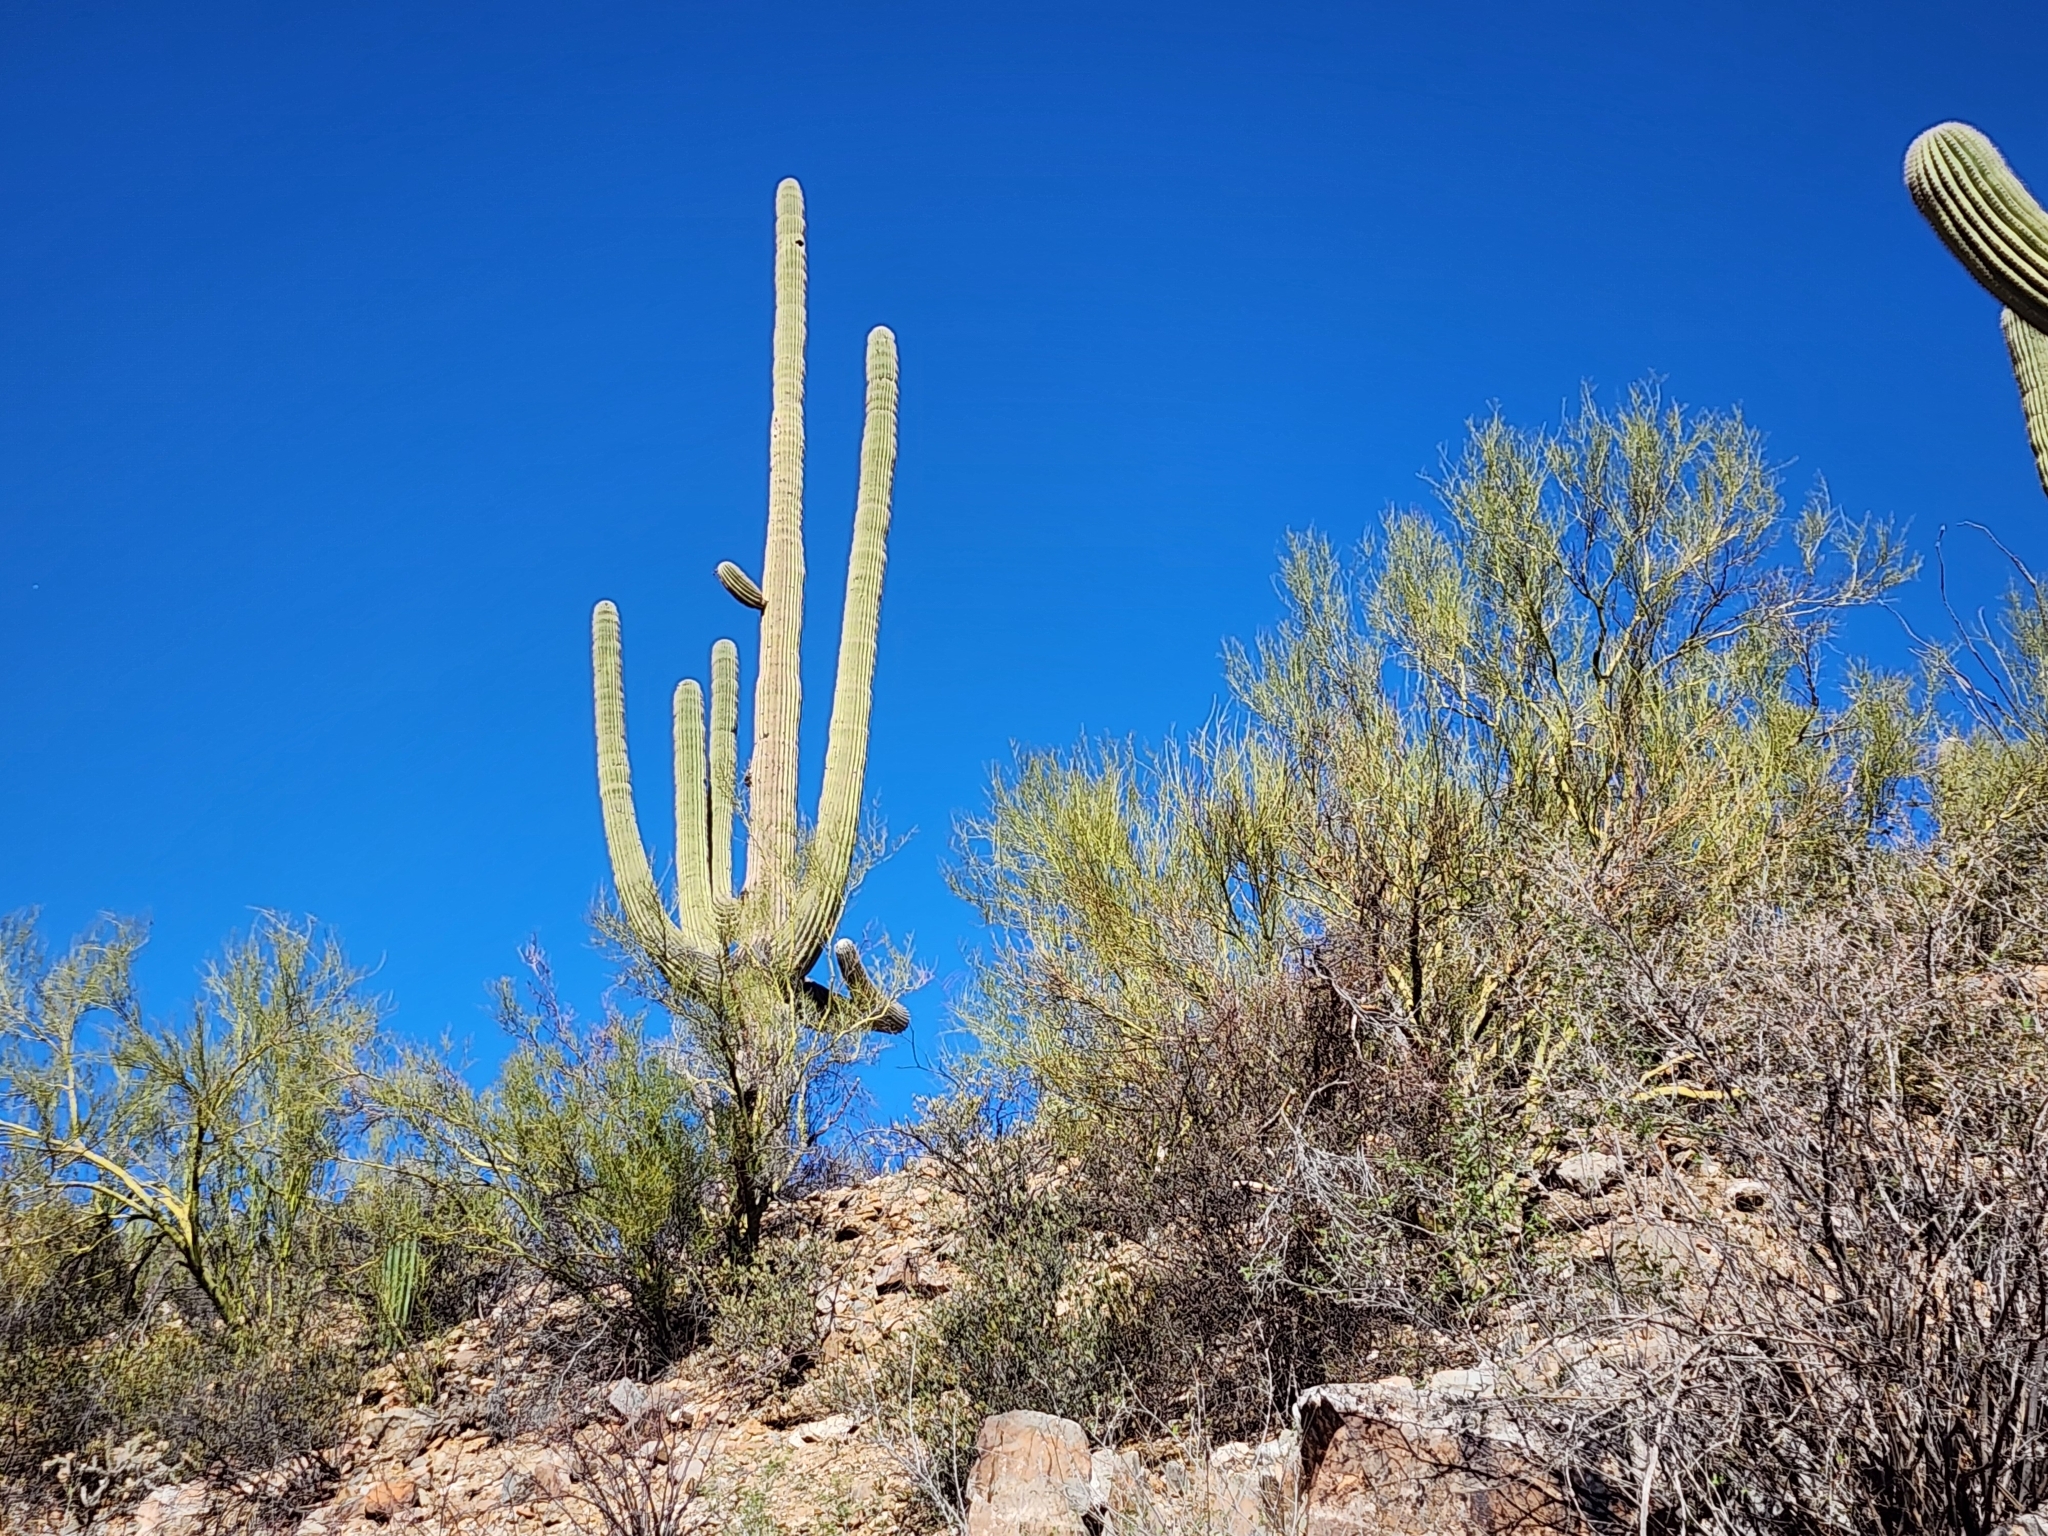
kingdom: Plantae
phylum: Tracheophyta
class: Magnoliopsida
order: Caryophyllales
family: Cactaceae
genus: Carnegiea
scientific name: Carnegiea gigantea
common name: Saguaro
